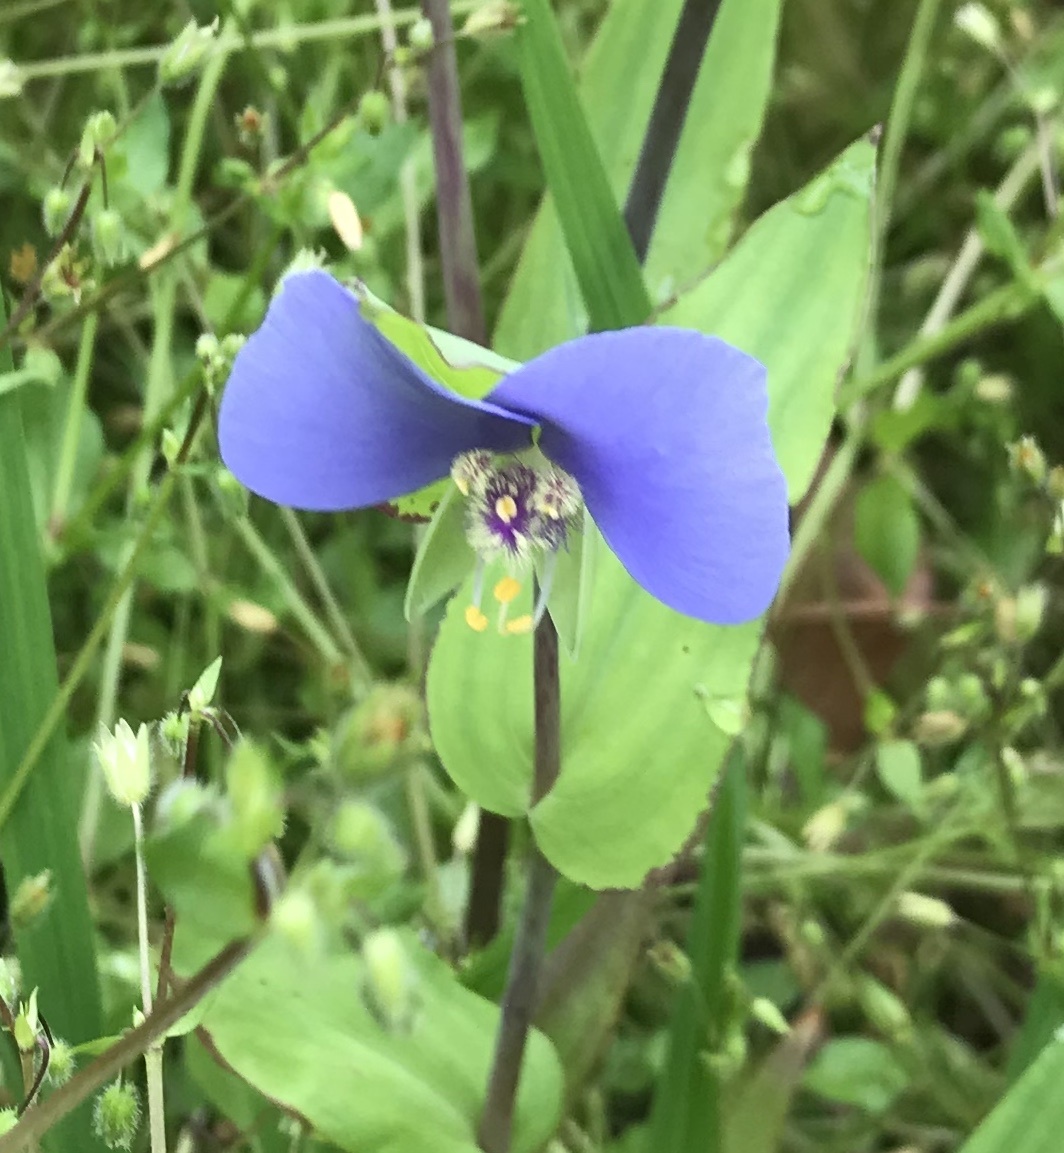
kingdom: Plantae
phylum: Tracheophyta
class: Liliopsida
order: Commelinales
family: Commelinaceae
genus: Tinantia
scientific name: Tinantia anomala
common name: False dayflower
